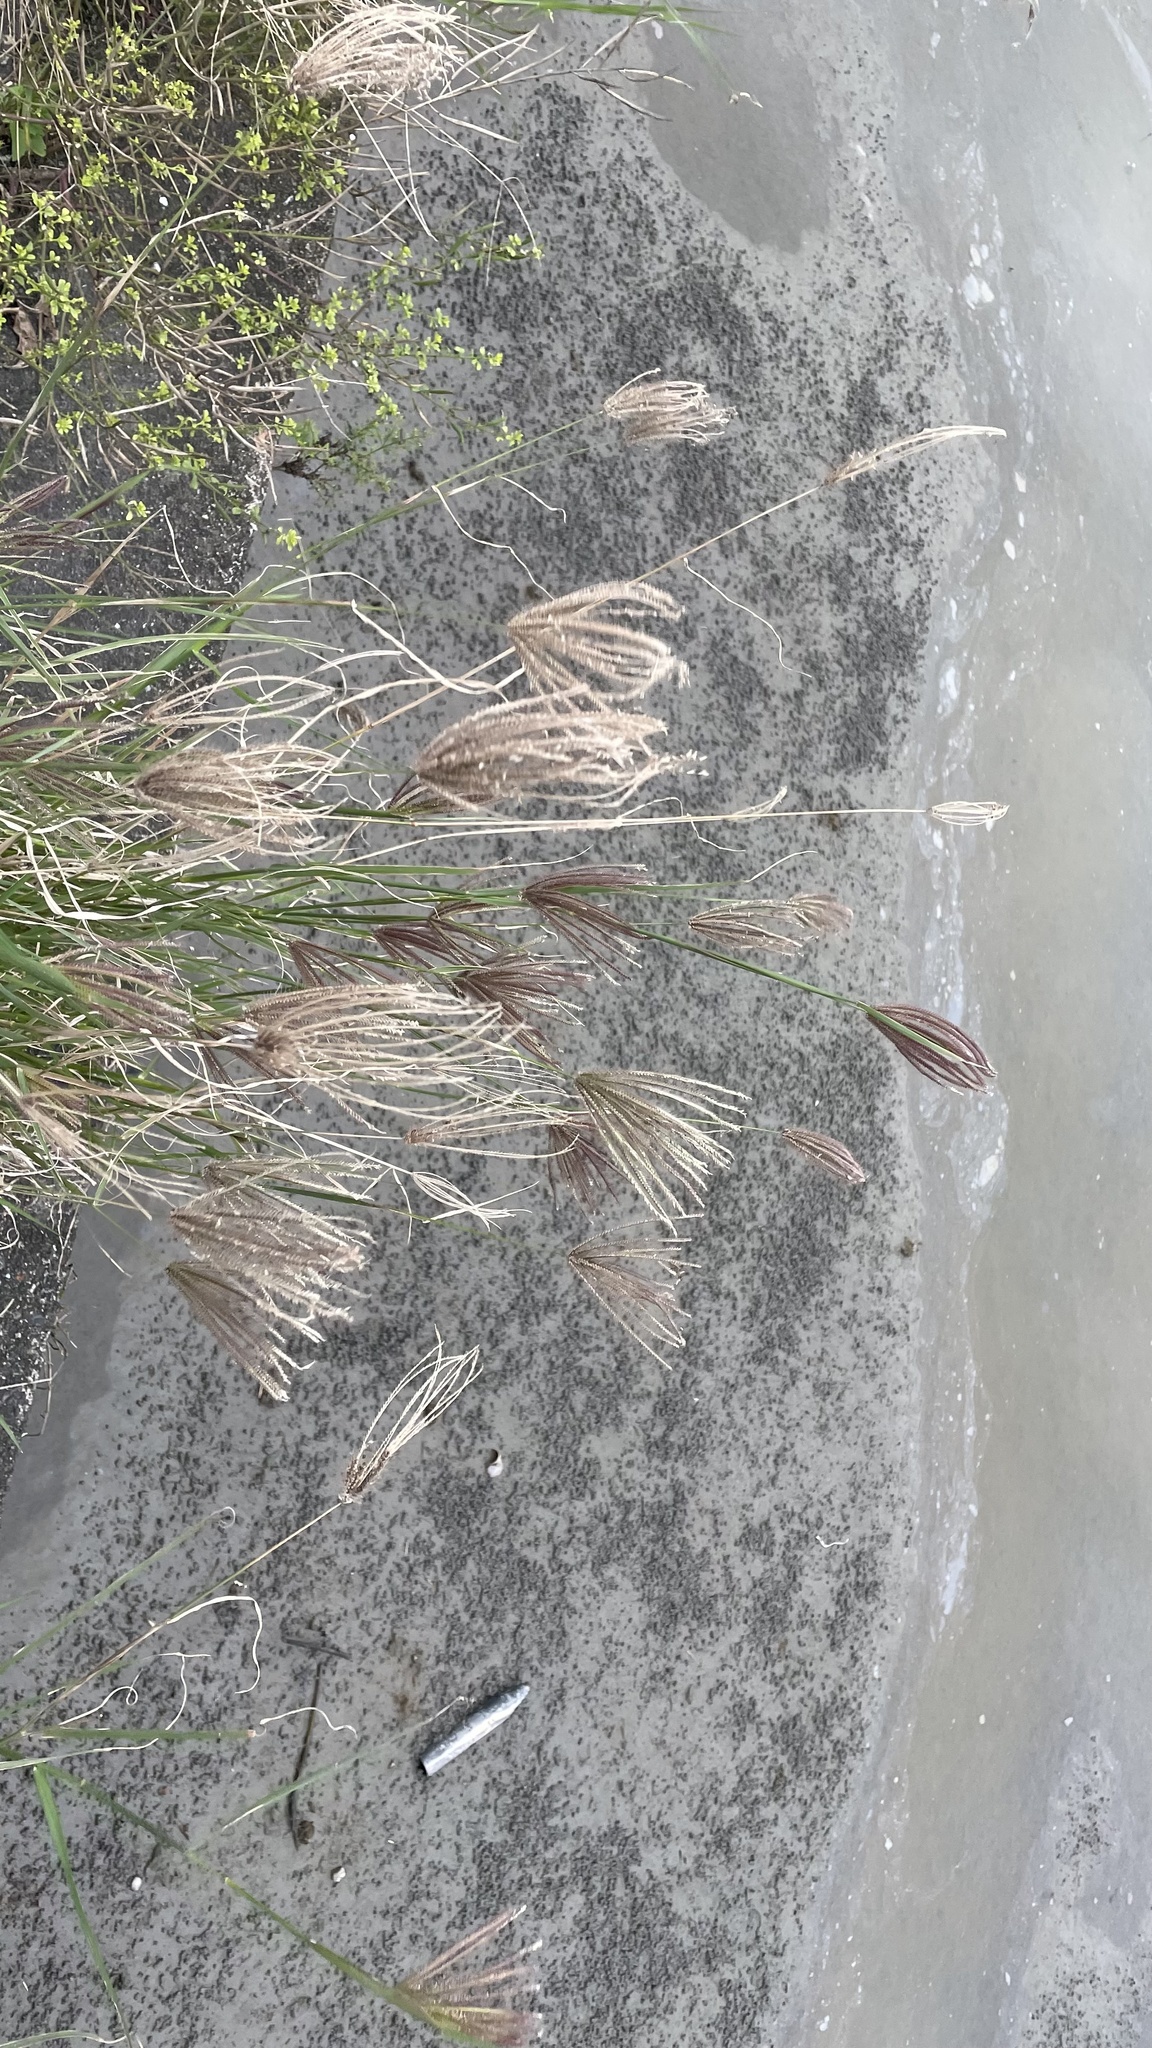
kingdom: Plantae
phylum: Tracheophyta
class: Liliopsida
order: Poales
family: Poaceae
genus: Chloris
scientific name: Chloris barbata
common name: Swollen fingergrass
